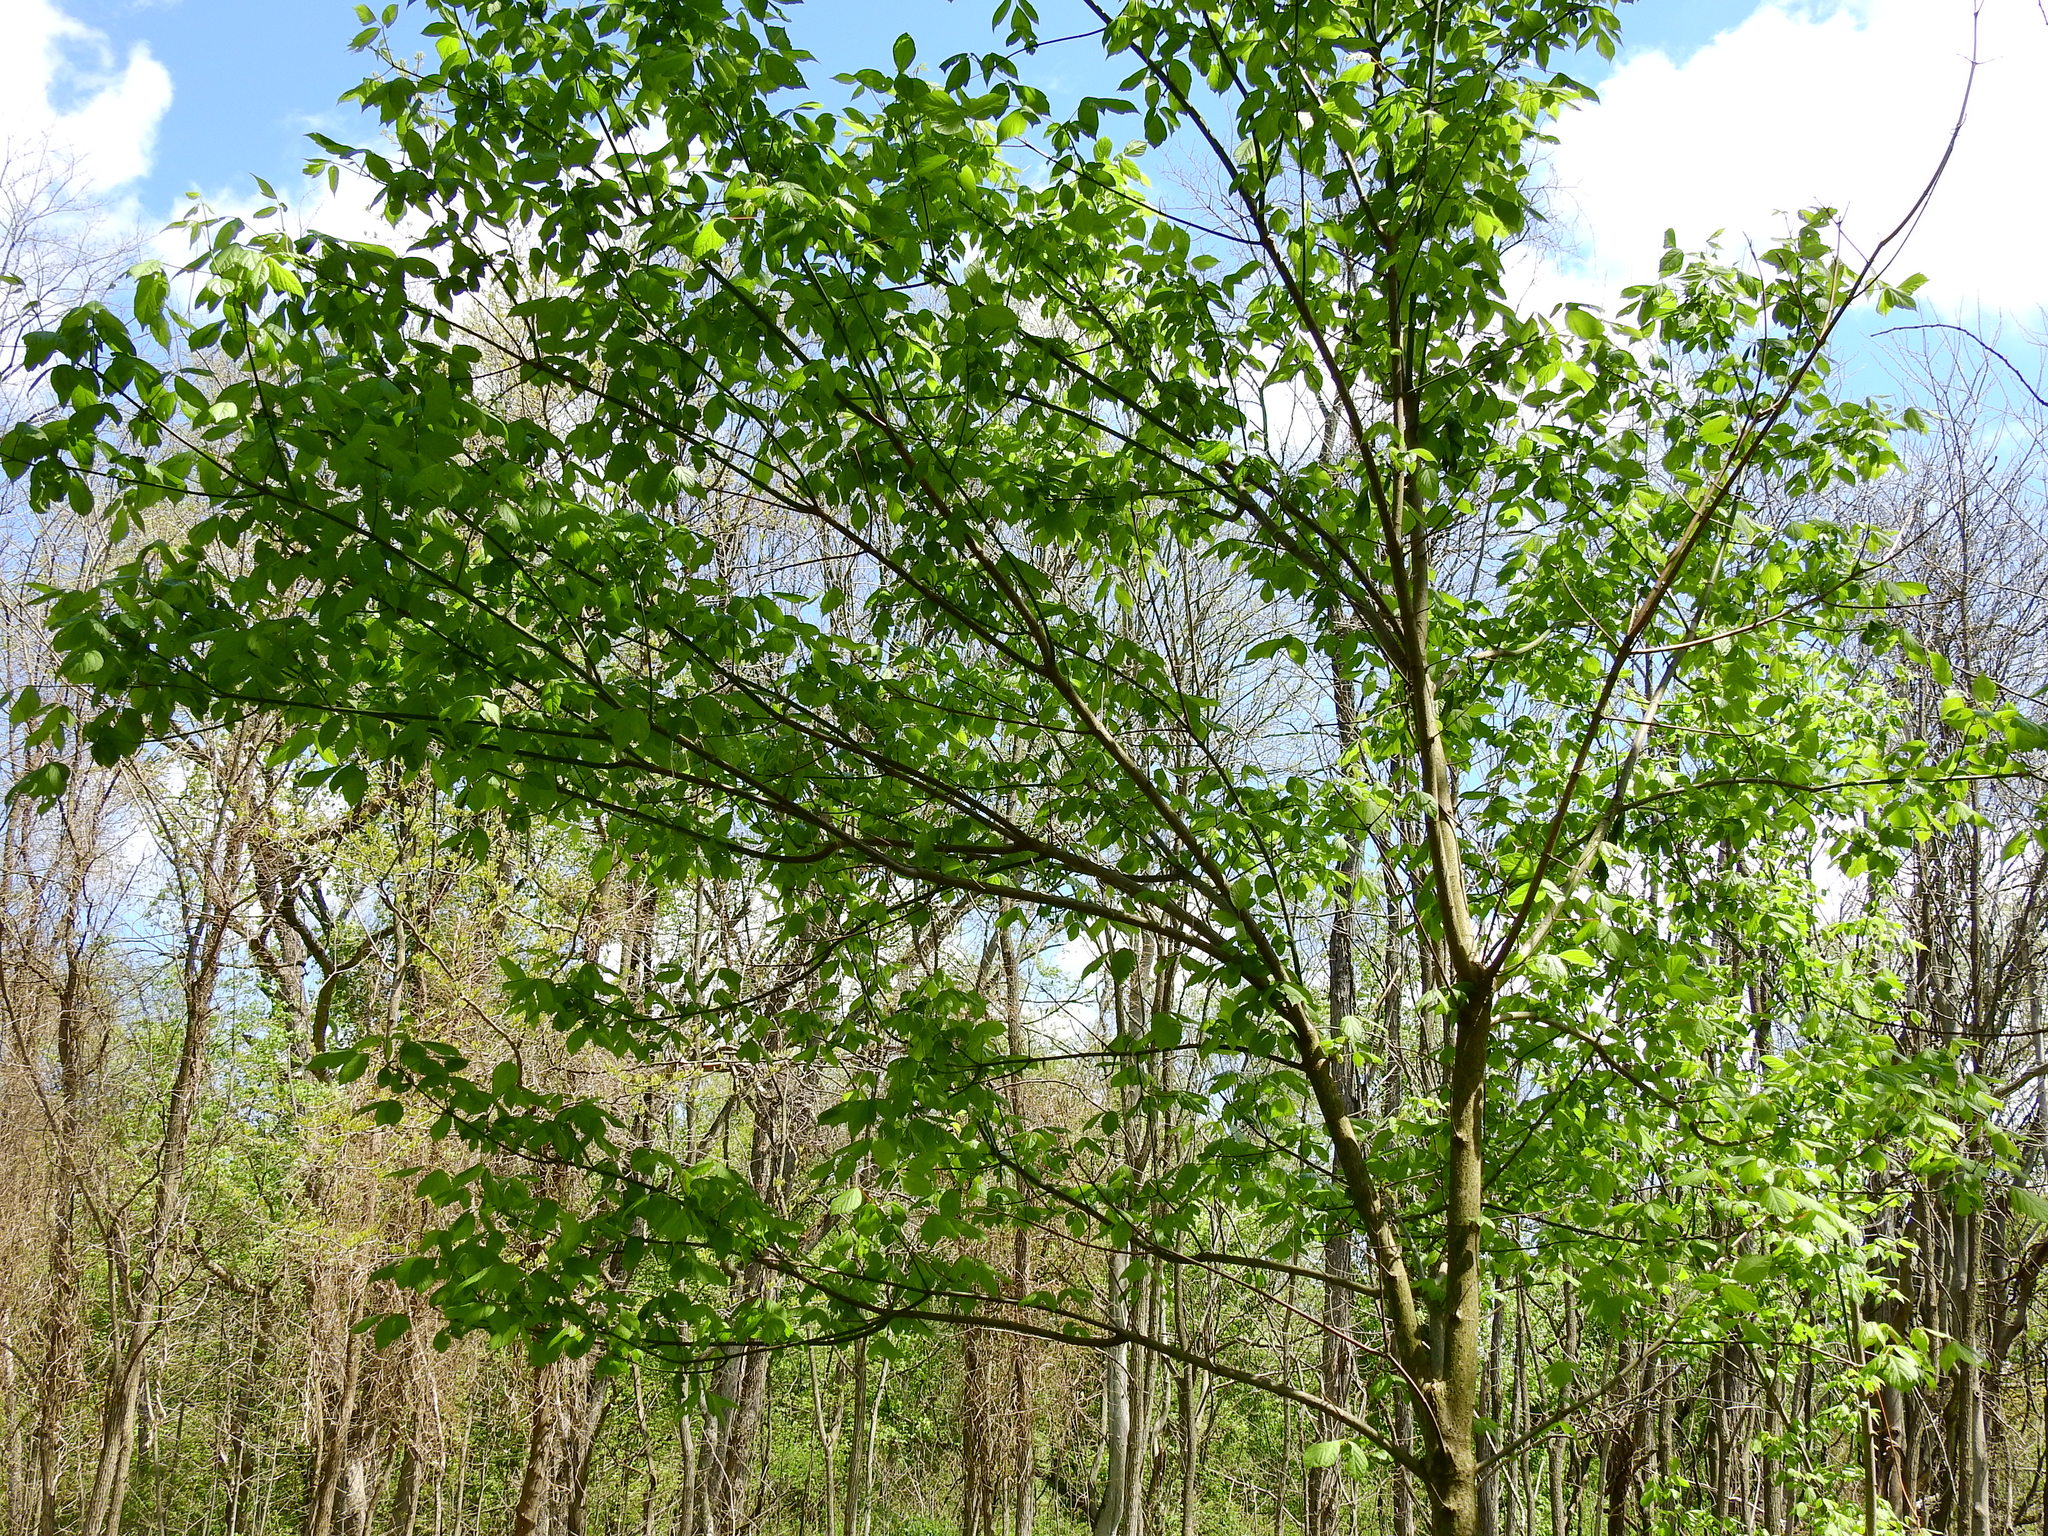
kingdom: Plantae
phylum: Tracheophyta
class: Magnoliopsida
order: Sapindales
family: Sapindaceae
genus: Acer
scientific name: Acer negundo
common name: Ashleaf maple
